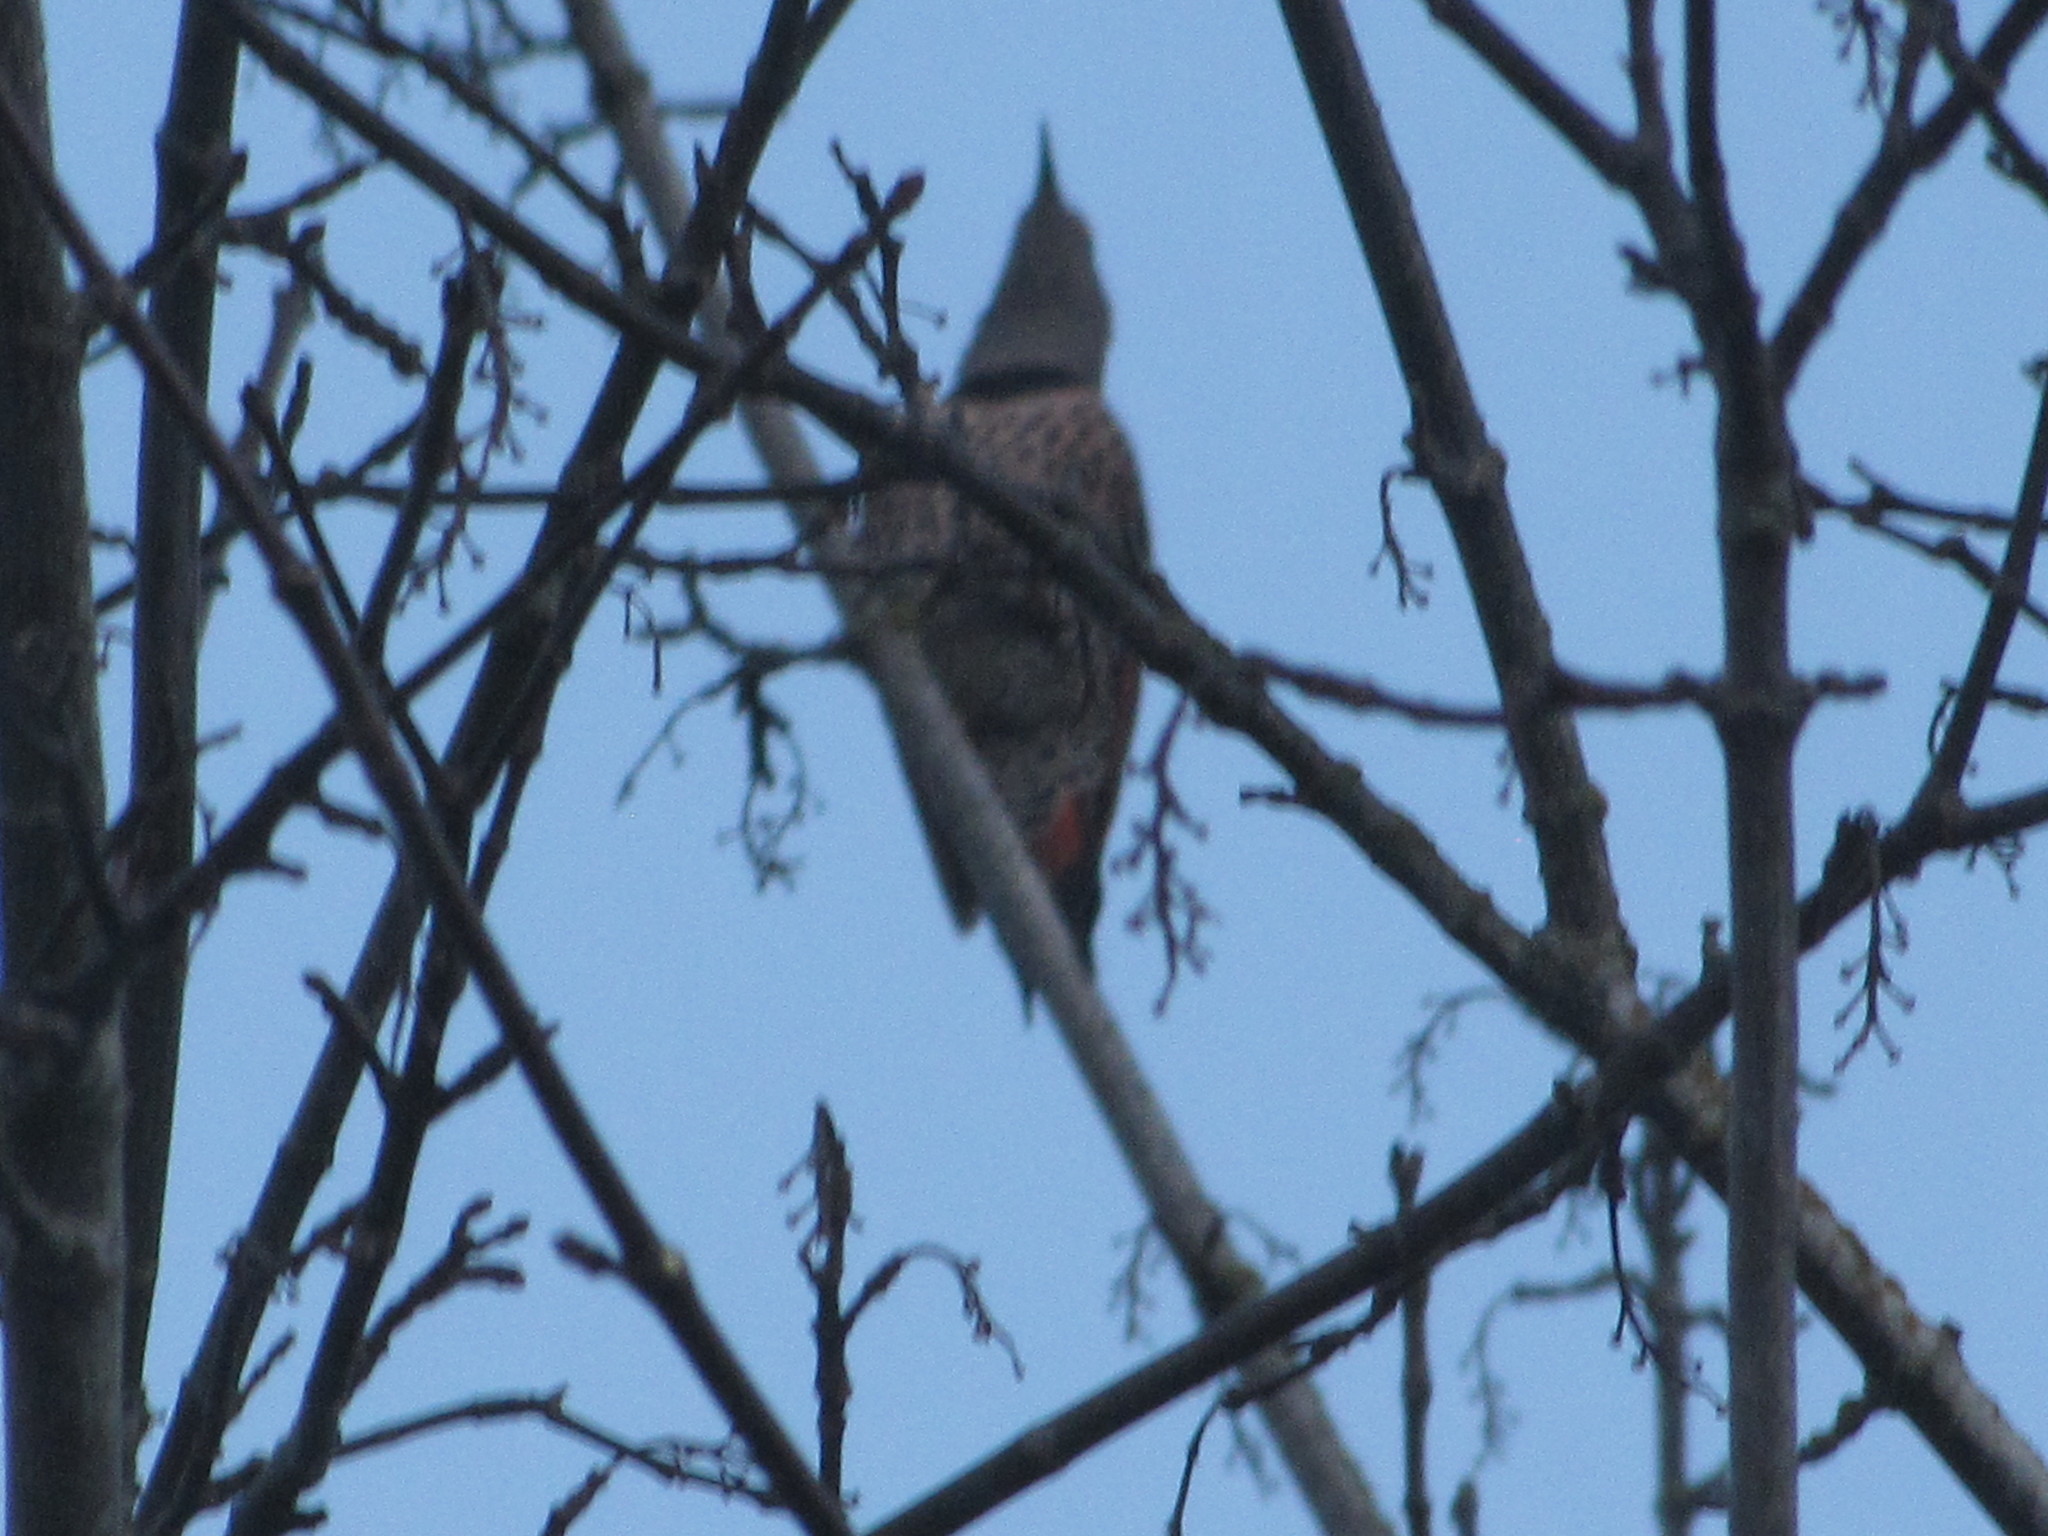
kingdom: Animalia
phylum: Chordata
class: Aves
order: Piciformes
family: Picidae
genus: Colaptes
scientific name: Colaptes auratus
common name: Northern flicker
